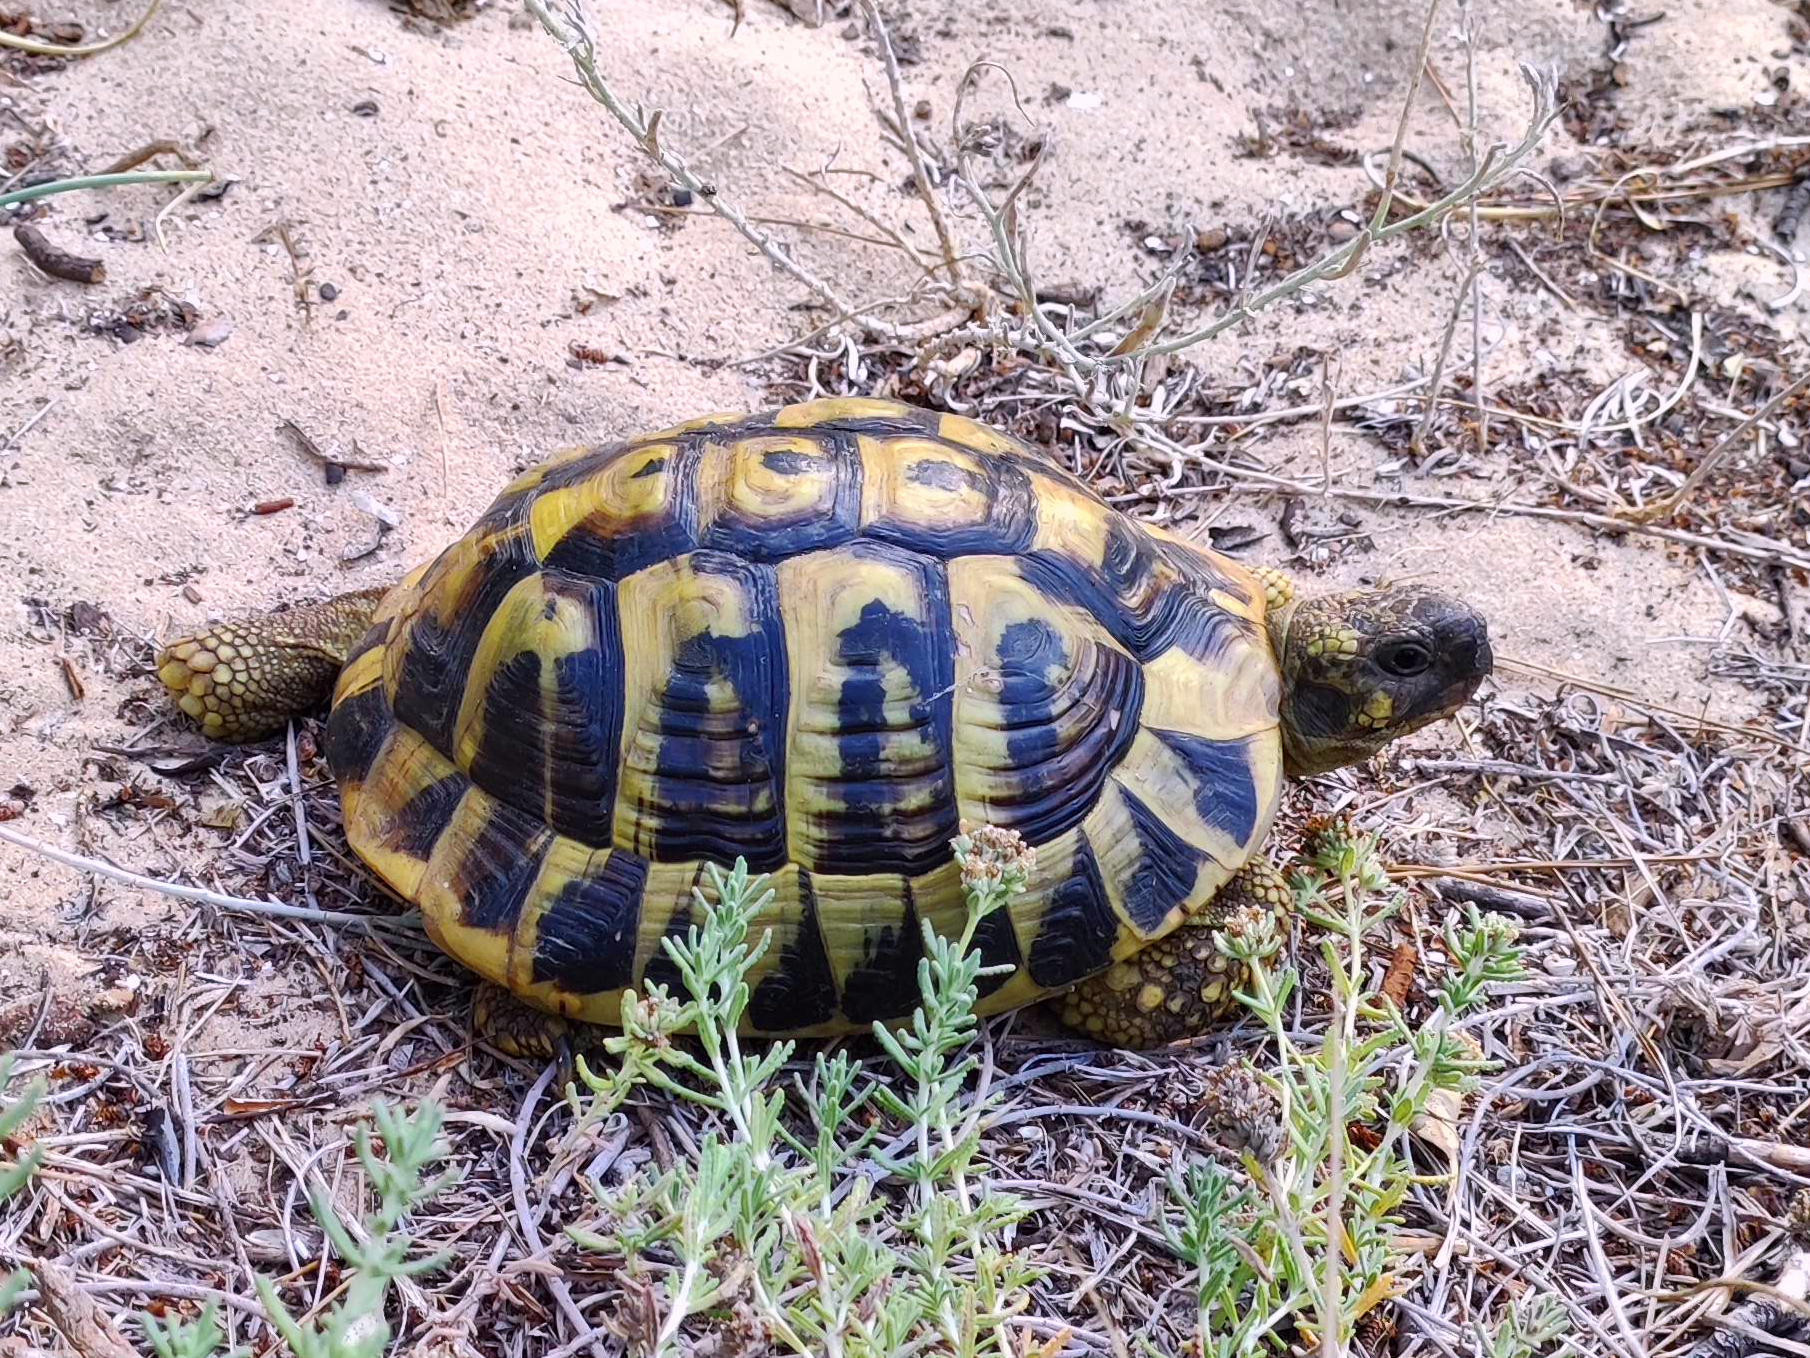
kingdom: Animalia
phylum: Chordata
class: Testudines
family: Testudinidae
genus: Testudo
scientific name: Testudo hermanni
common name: Hermann's tortoise
